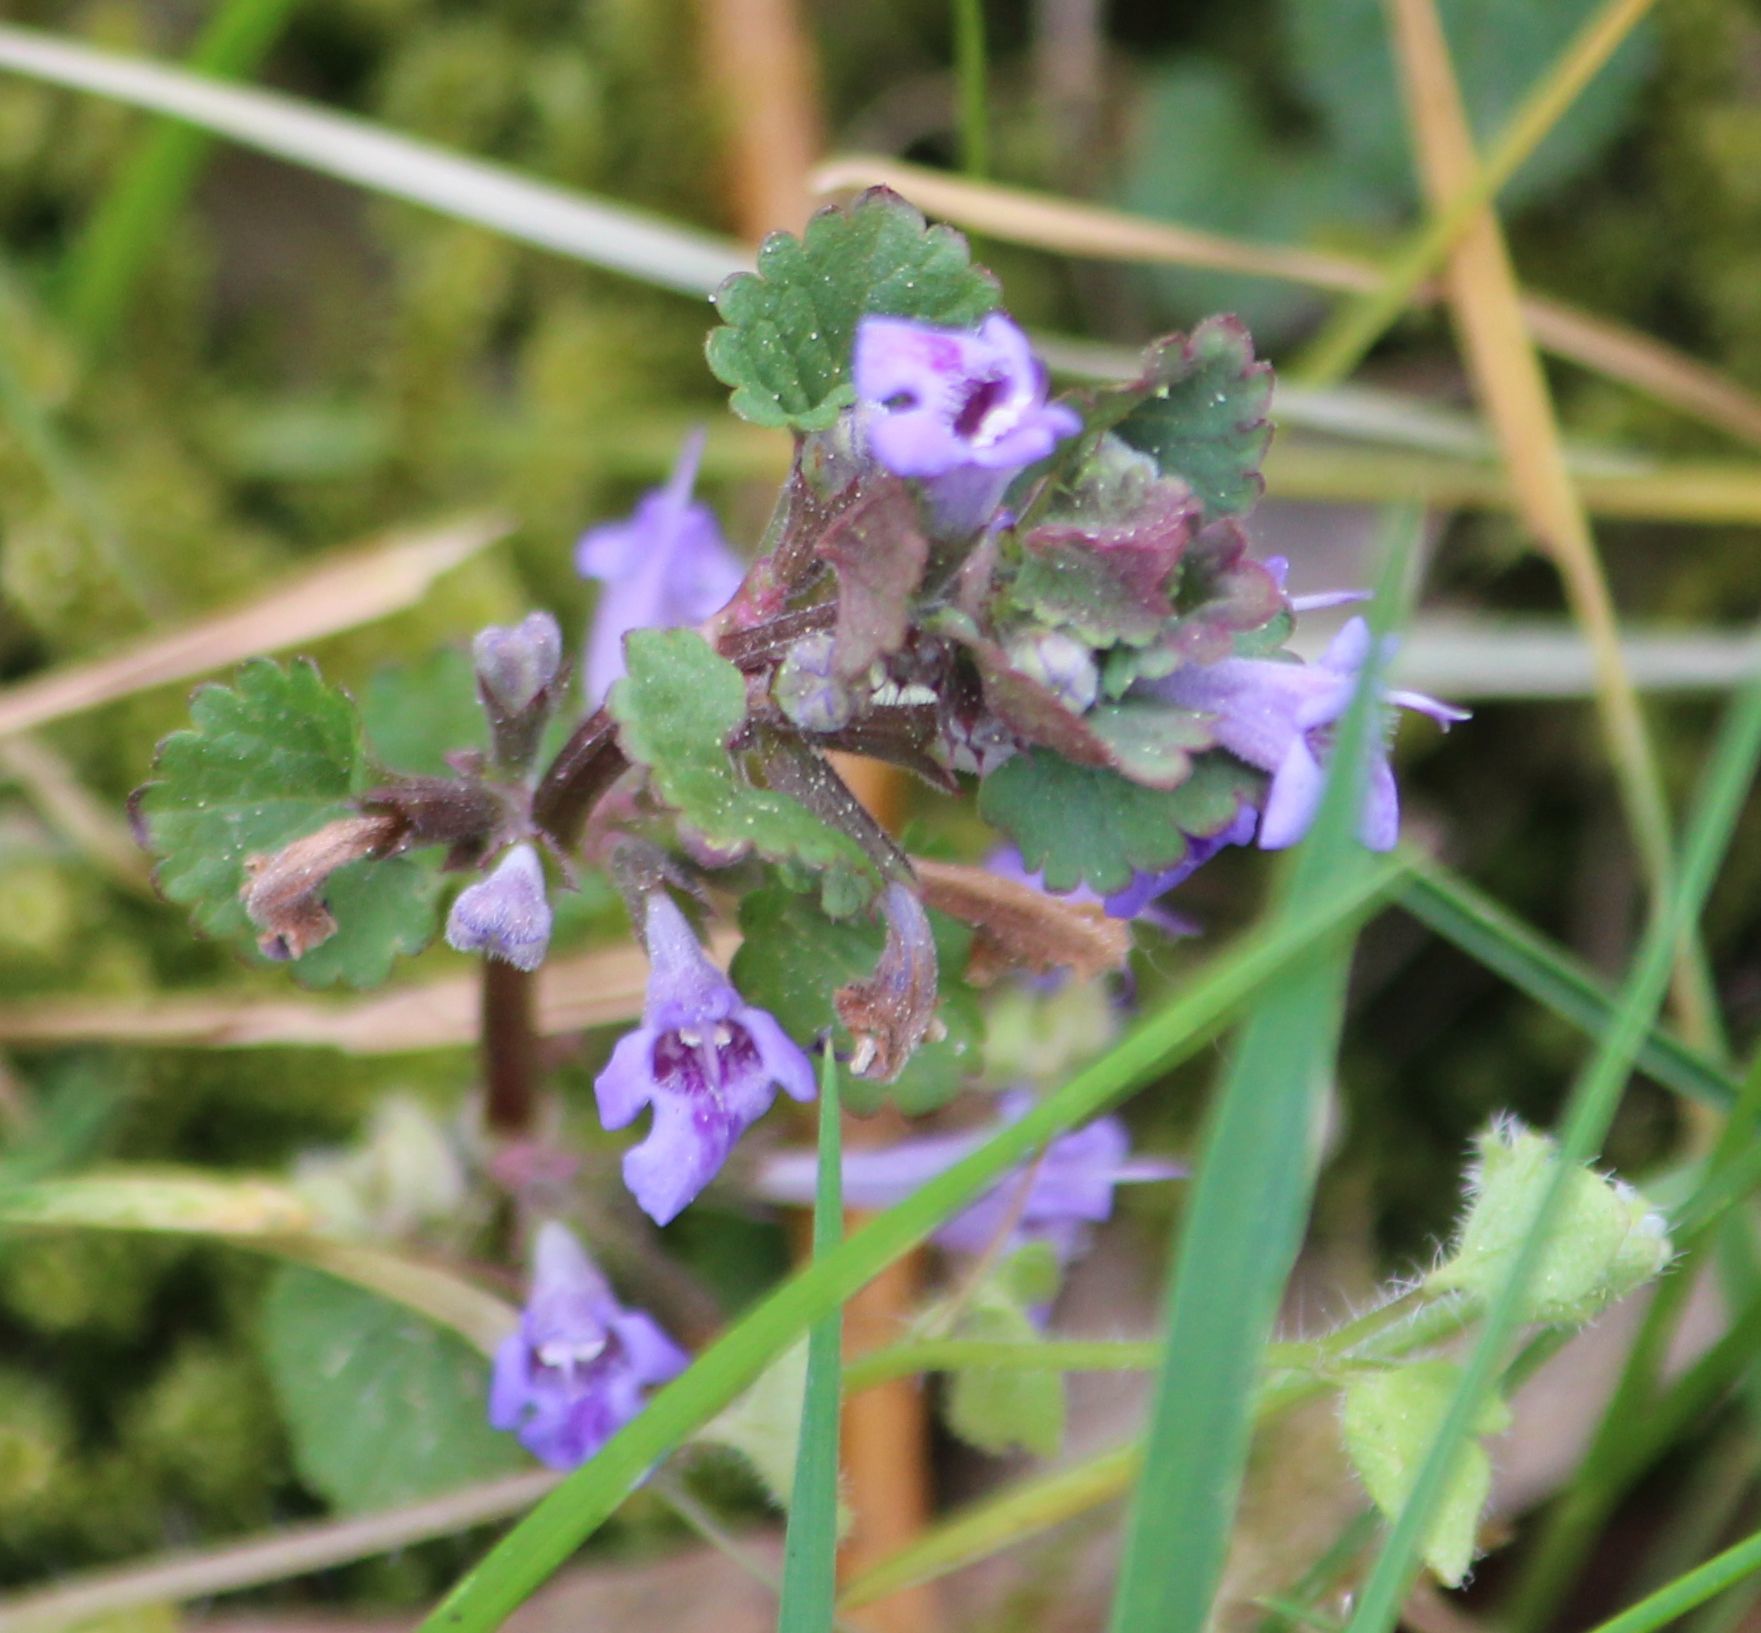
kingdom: Plantae
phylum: Tracheophyta
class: Magnoliopsida
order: Lamiales
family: Lamiaceae
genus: Glechoma
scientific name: Glechoma hederacea
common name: Ground ivy
